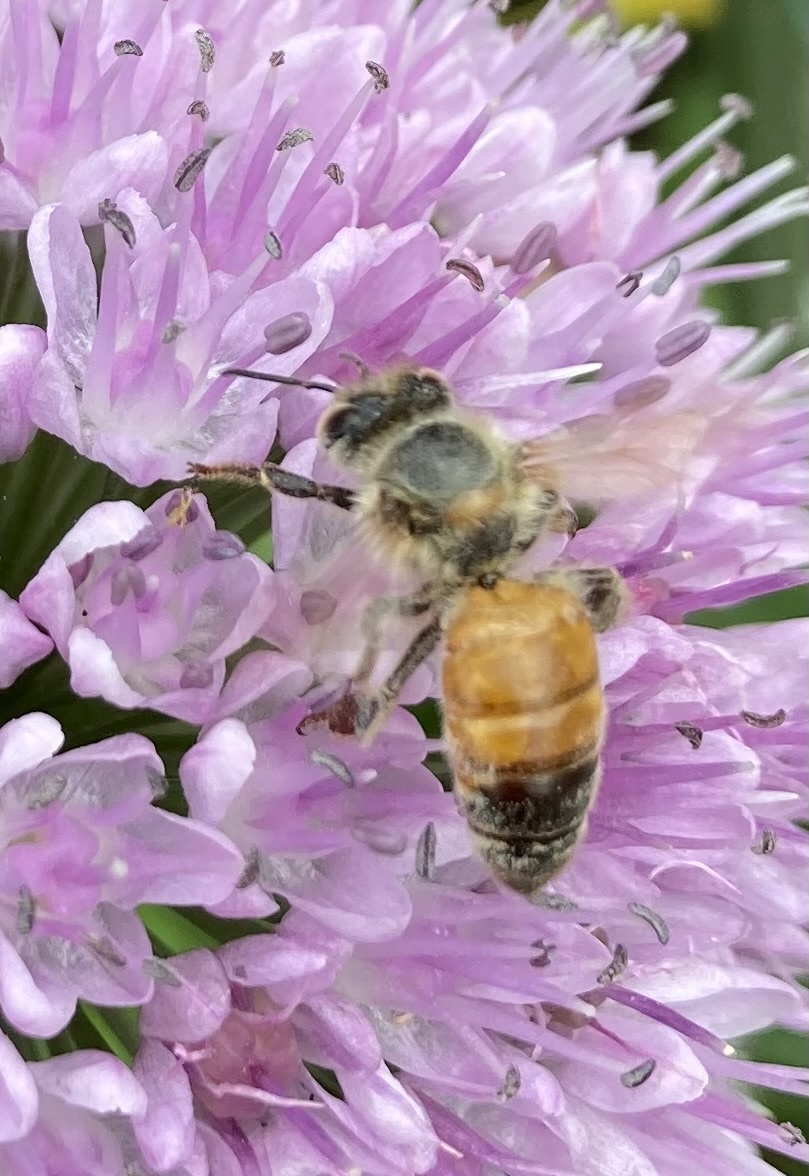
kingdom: Animalia
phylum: Arthropoda
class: Insecta
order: Hymenoptera
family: Apidae
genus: Apis
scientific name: Apis mellifera
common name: Honey bee
